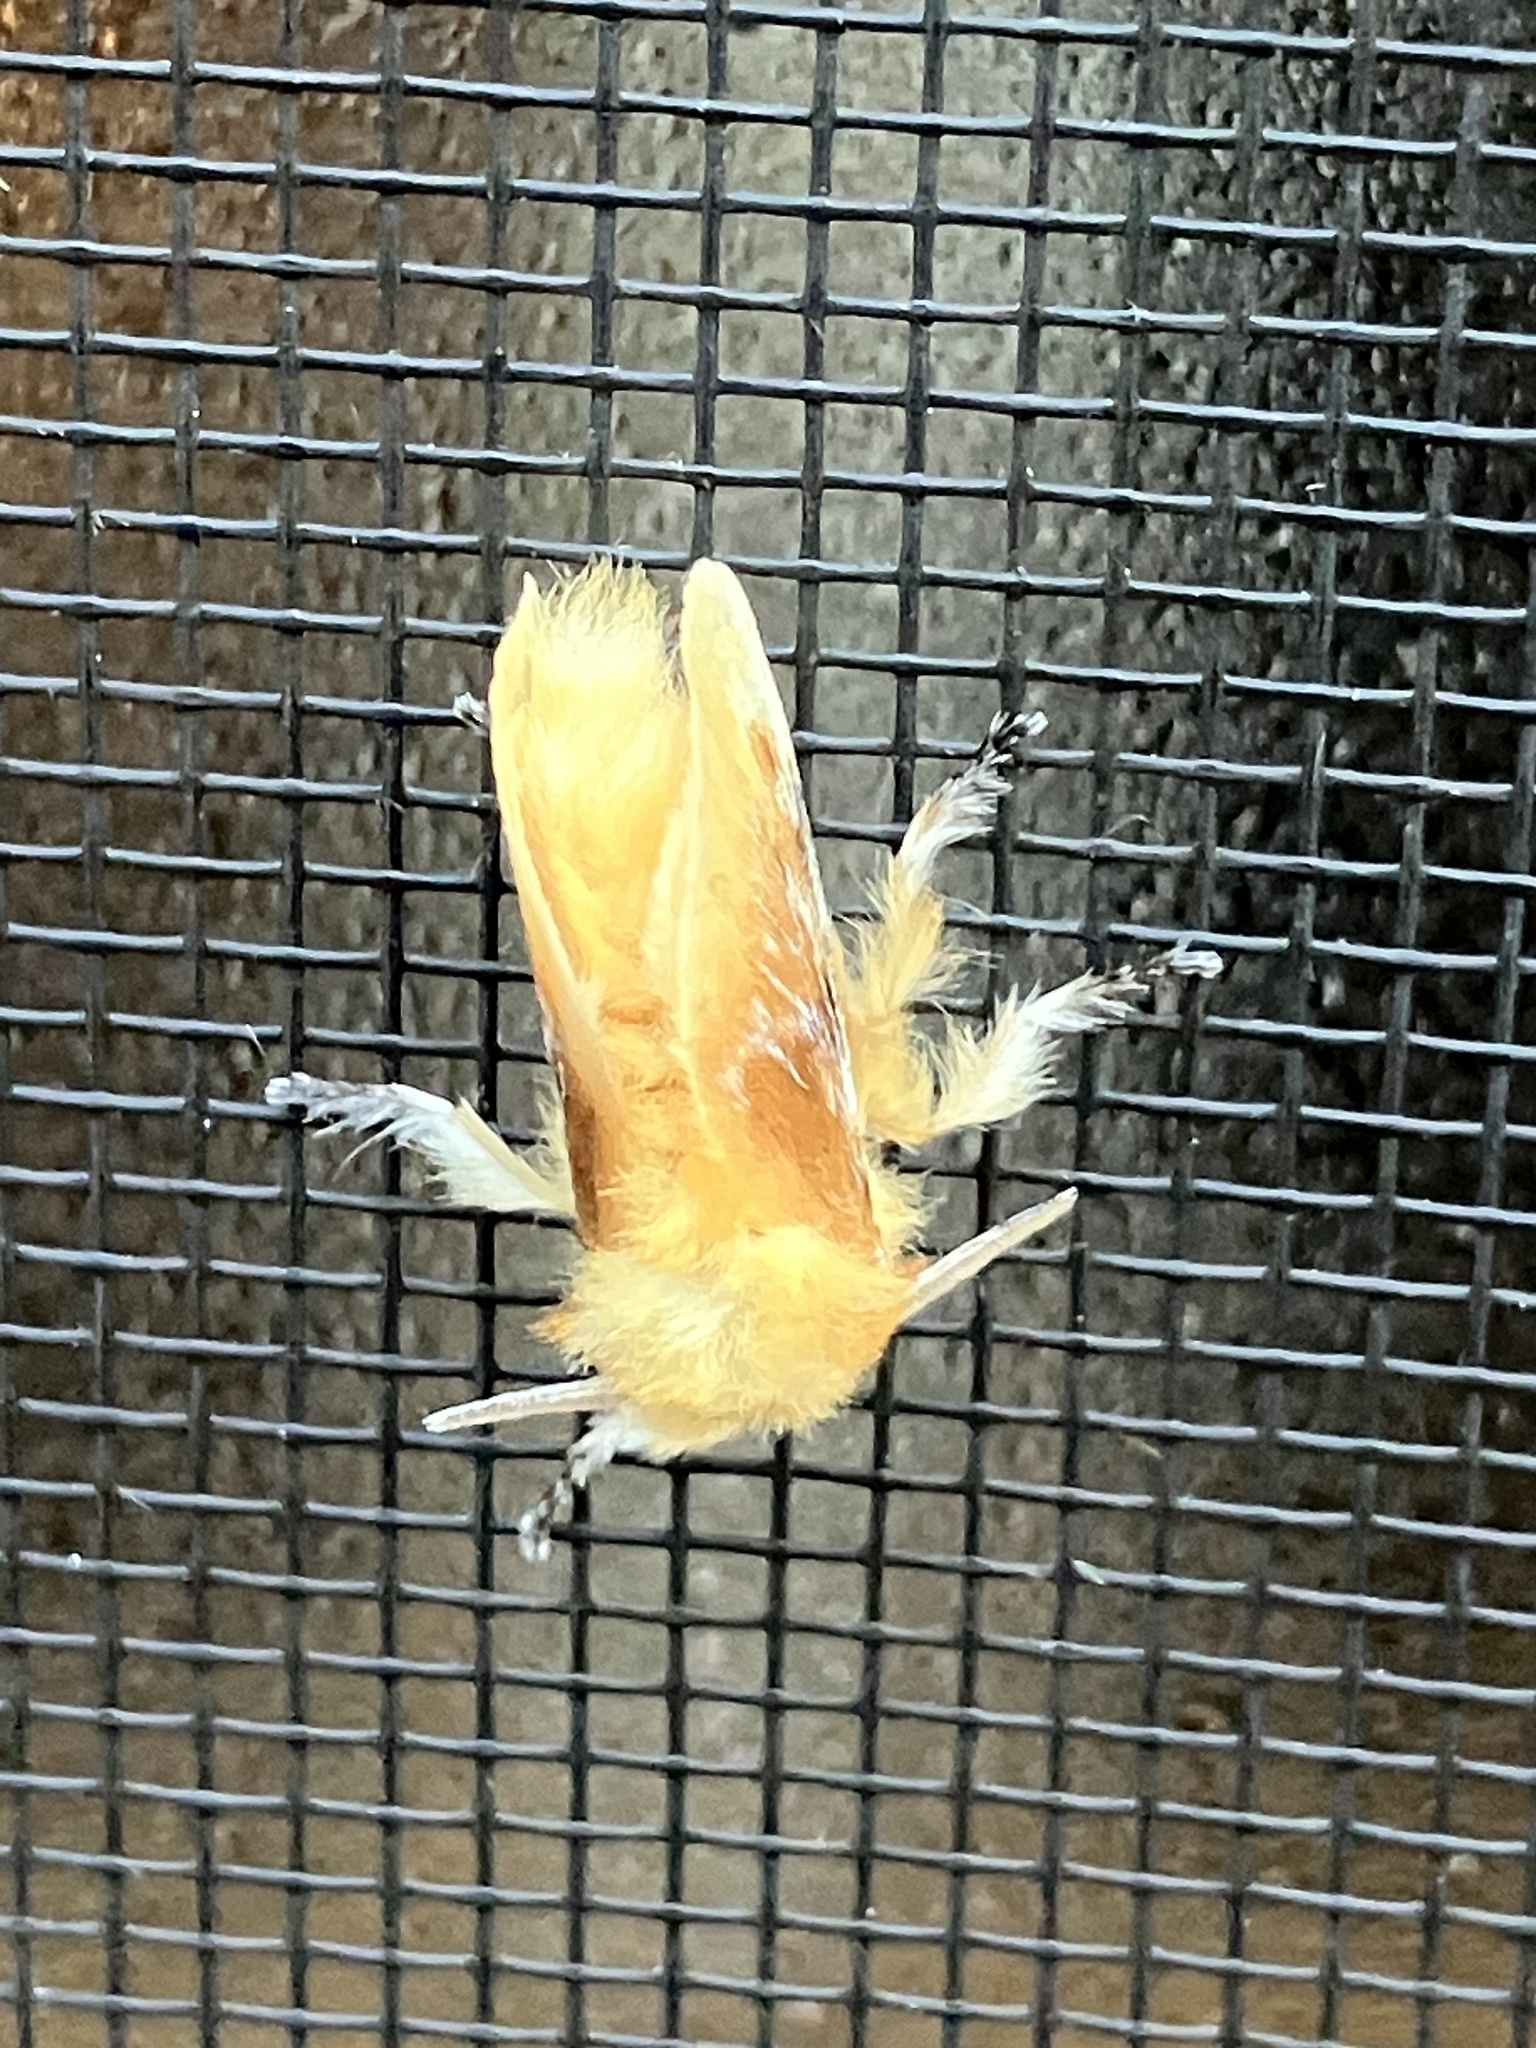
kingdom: Animalia
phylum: Arthropoda
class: Insecta
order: Lepidoptera
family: Megalopygidae
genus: Megalopyge
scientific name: Megalopyge opercularis
